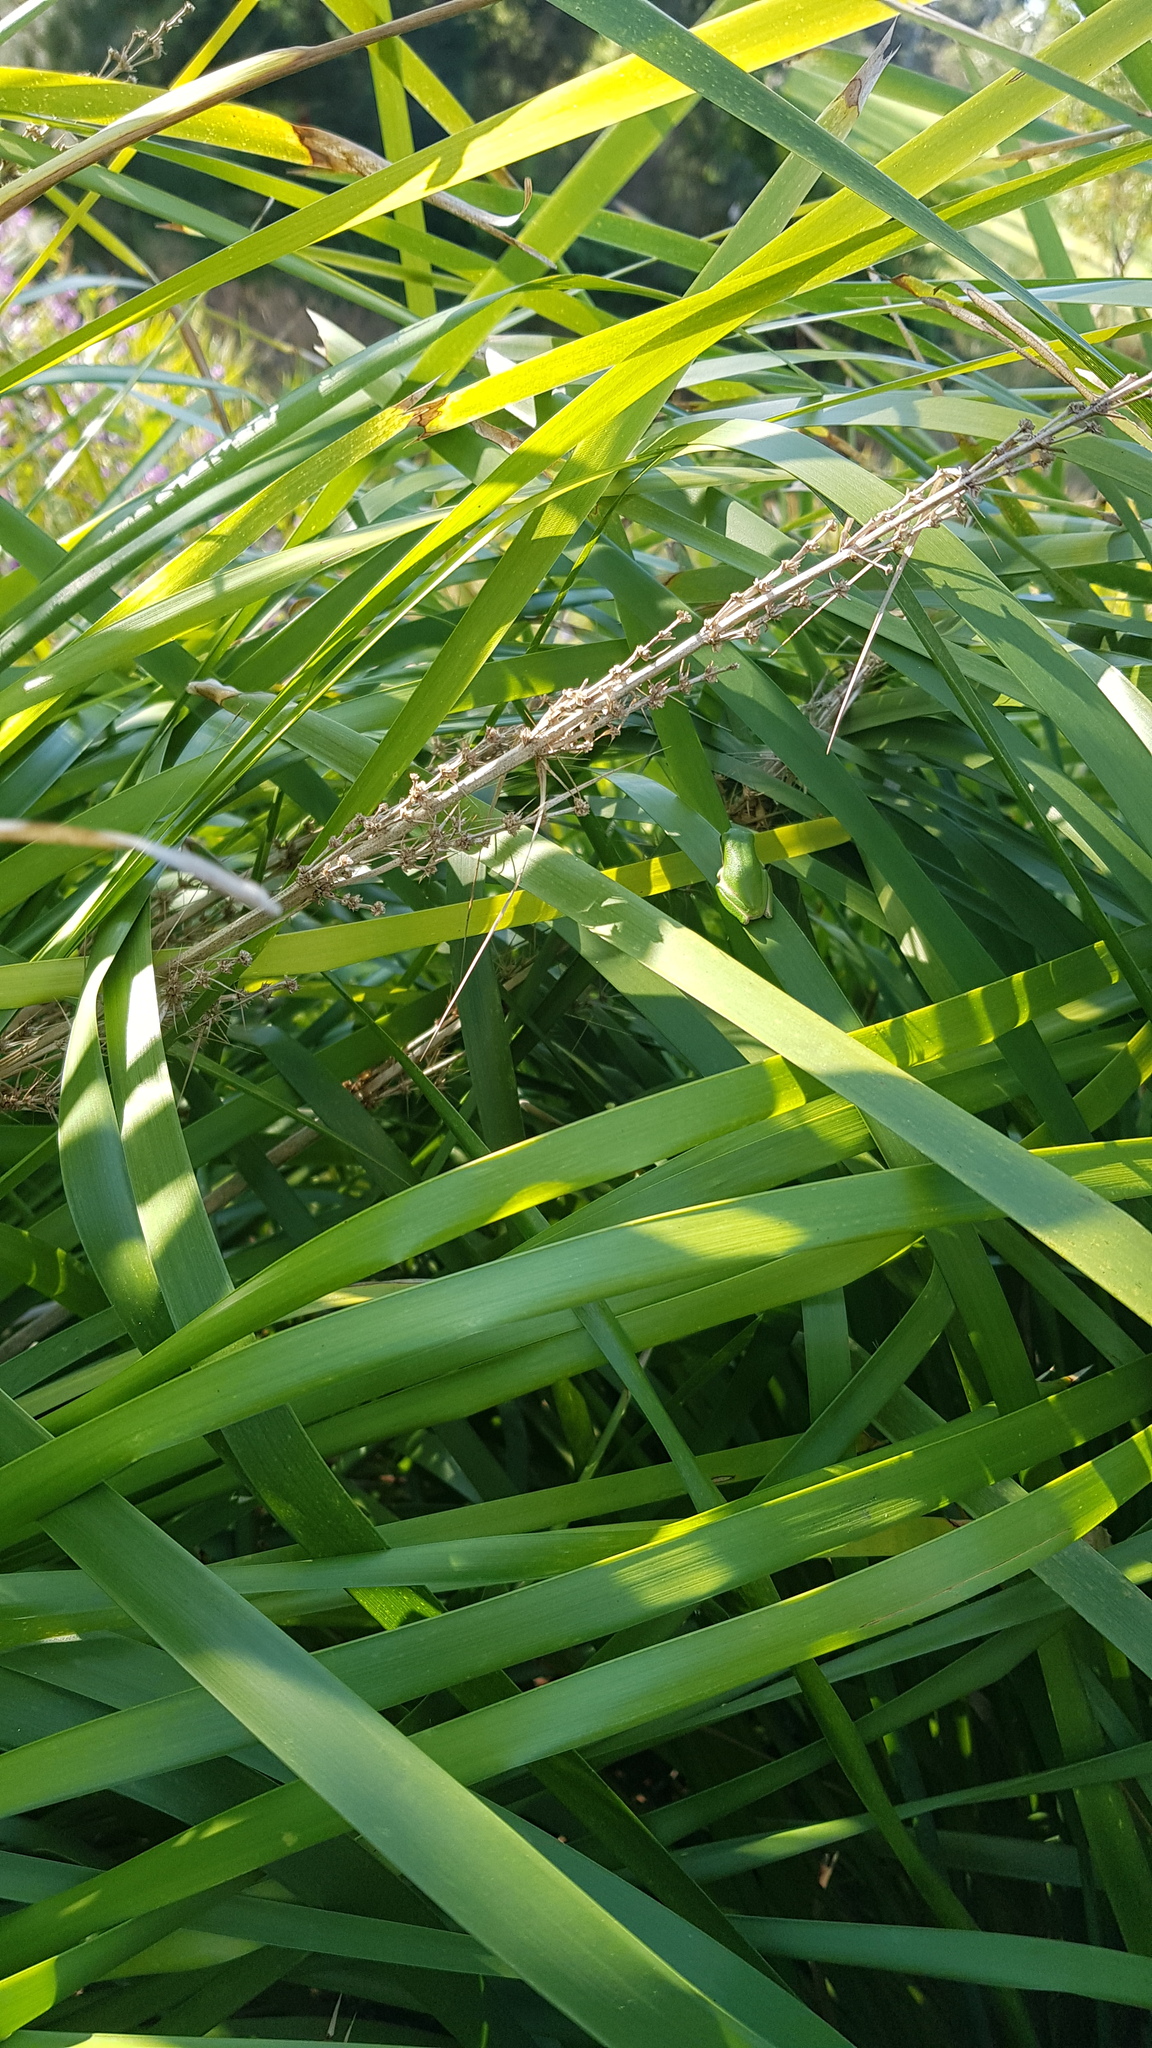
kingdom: Animalia
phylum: Chordata
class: Amphibia
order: Anura
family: Pelodryadidae
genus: Litoria
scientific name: Litoria fallax
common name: Eastern dwarf treefrog
